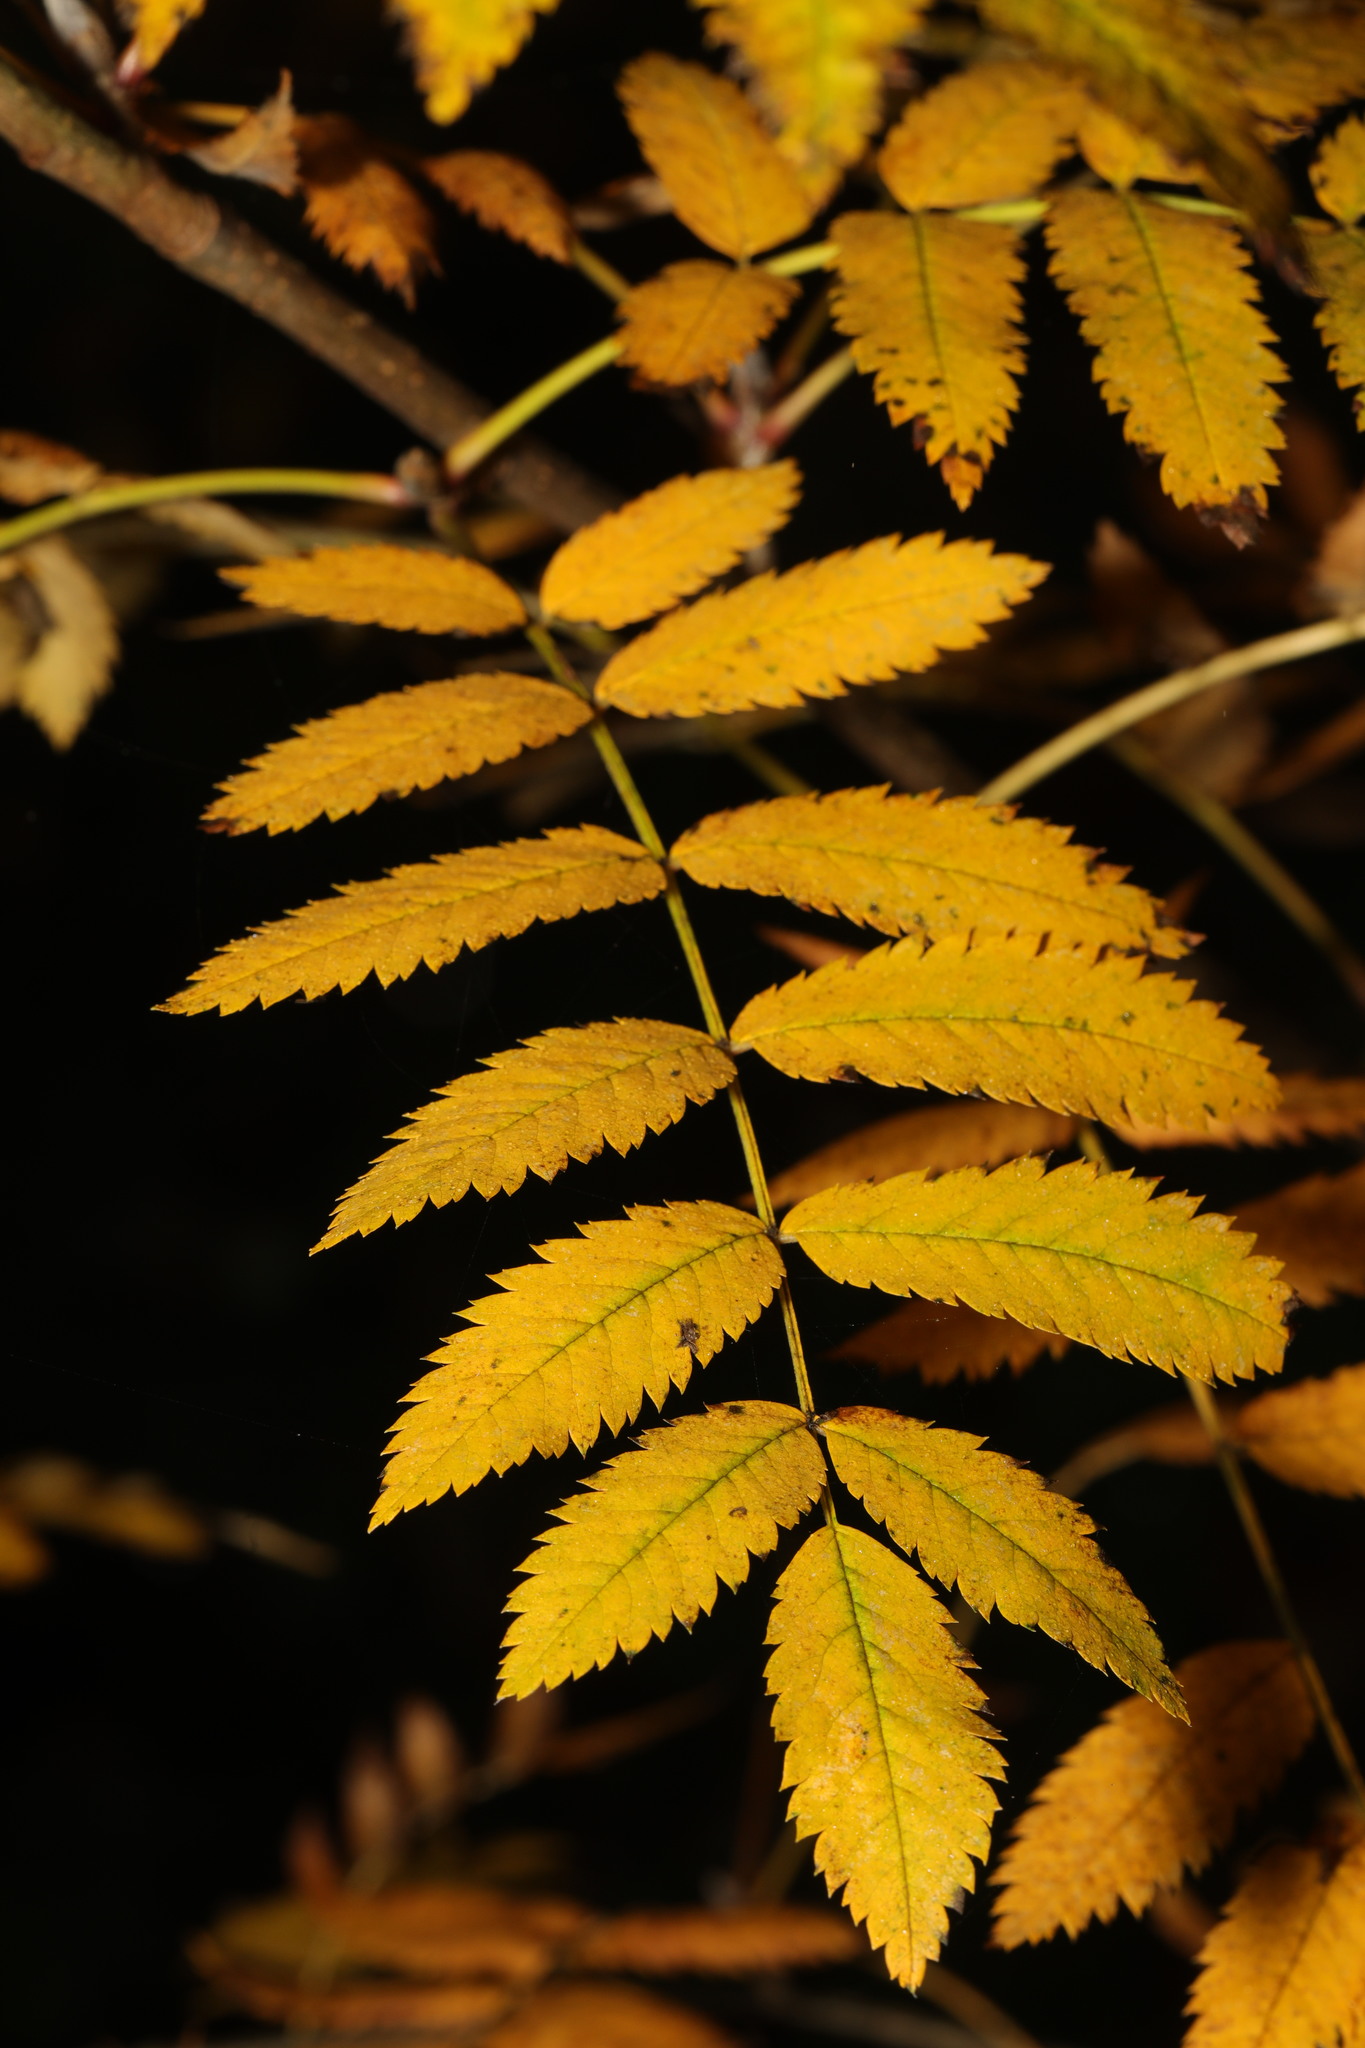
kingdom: Plantae
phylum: Tracheophyta
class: Magnoliopsida
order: Rosales
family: Rosaceae
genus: Sorbus
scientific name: Sorbus aucuparia
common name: Rowan
